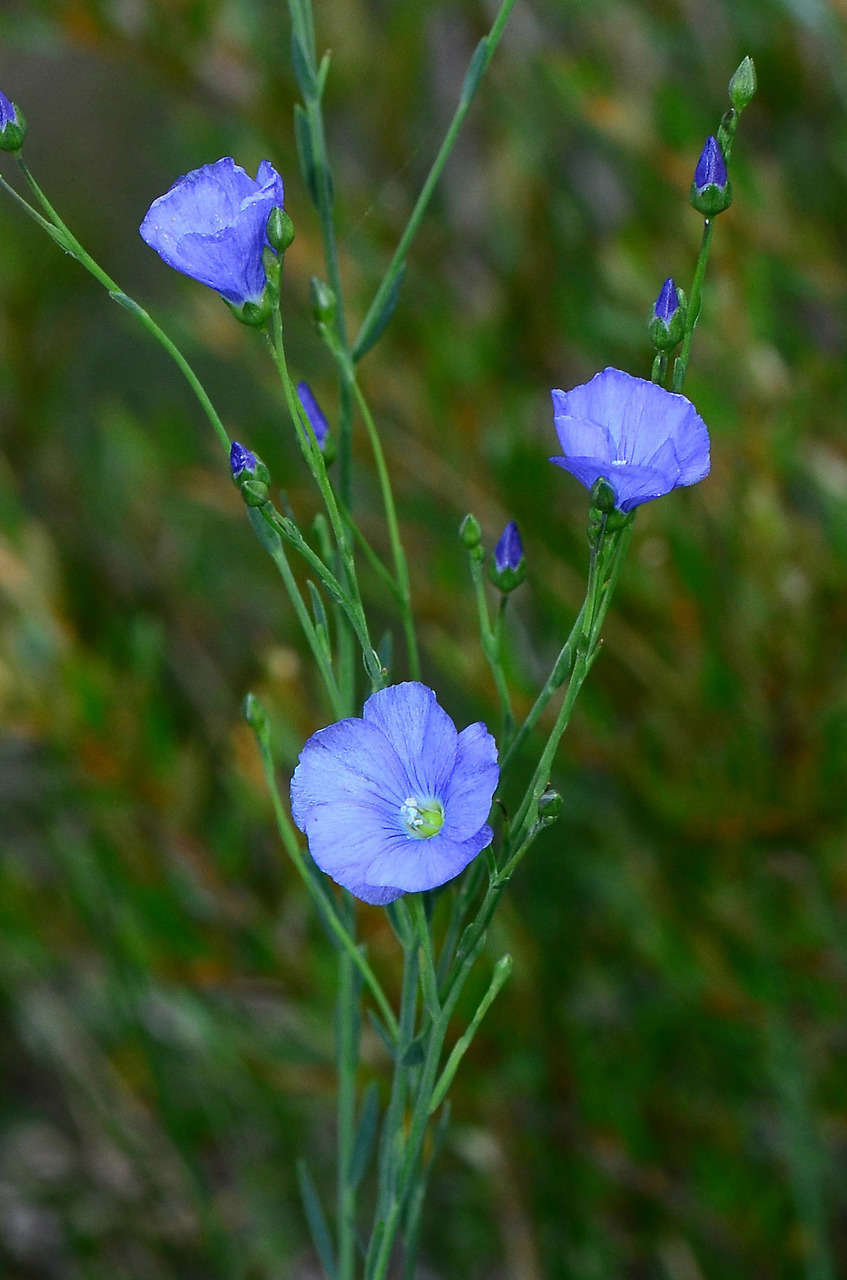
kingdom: Plantae
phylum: Tracheophyta
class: Magnoliopsida
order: Malpighiales
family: Linaceae
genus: Linum
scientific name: Linum marginale
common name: Wild flax
